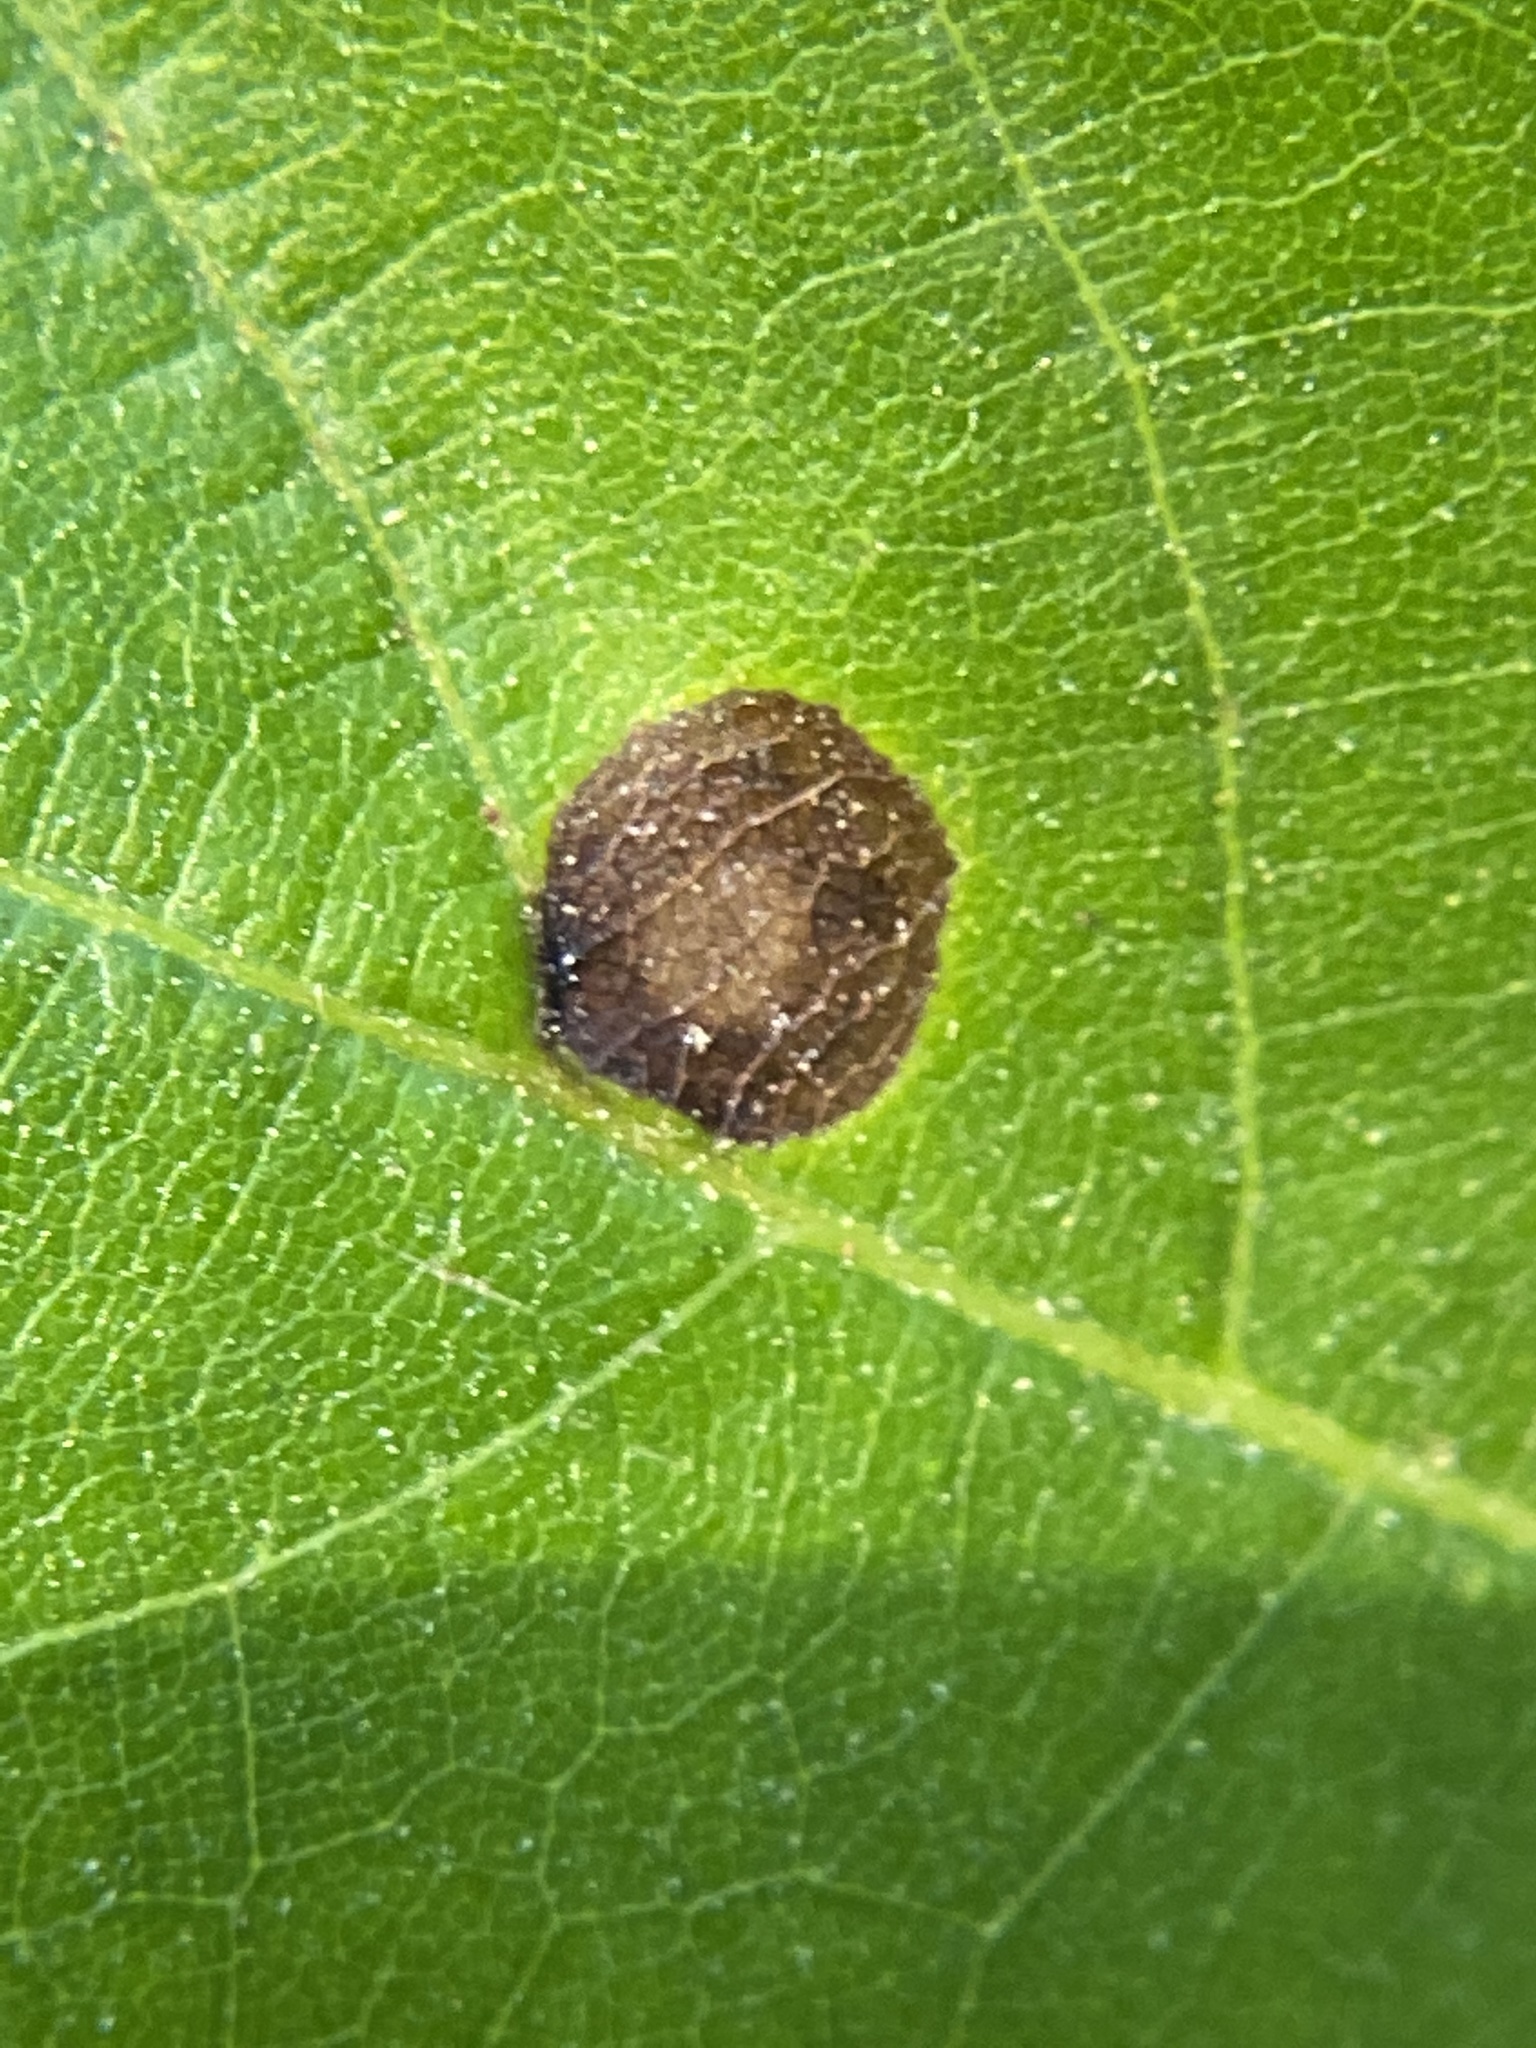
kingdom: Animalia
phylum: Arthropoda
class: Insecta
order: Diptera
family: Cecidomyiidae
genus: Acericecis
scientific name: Acericecis ocellaris
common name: Ocellate gall midge
